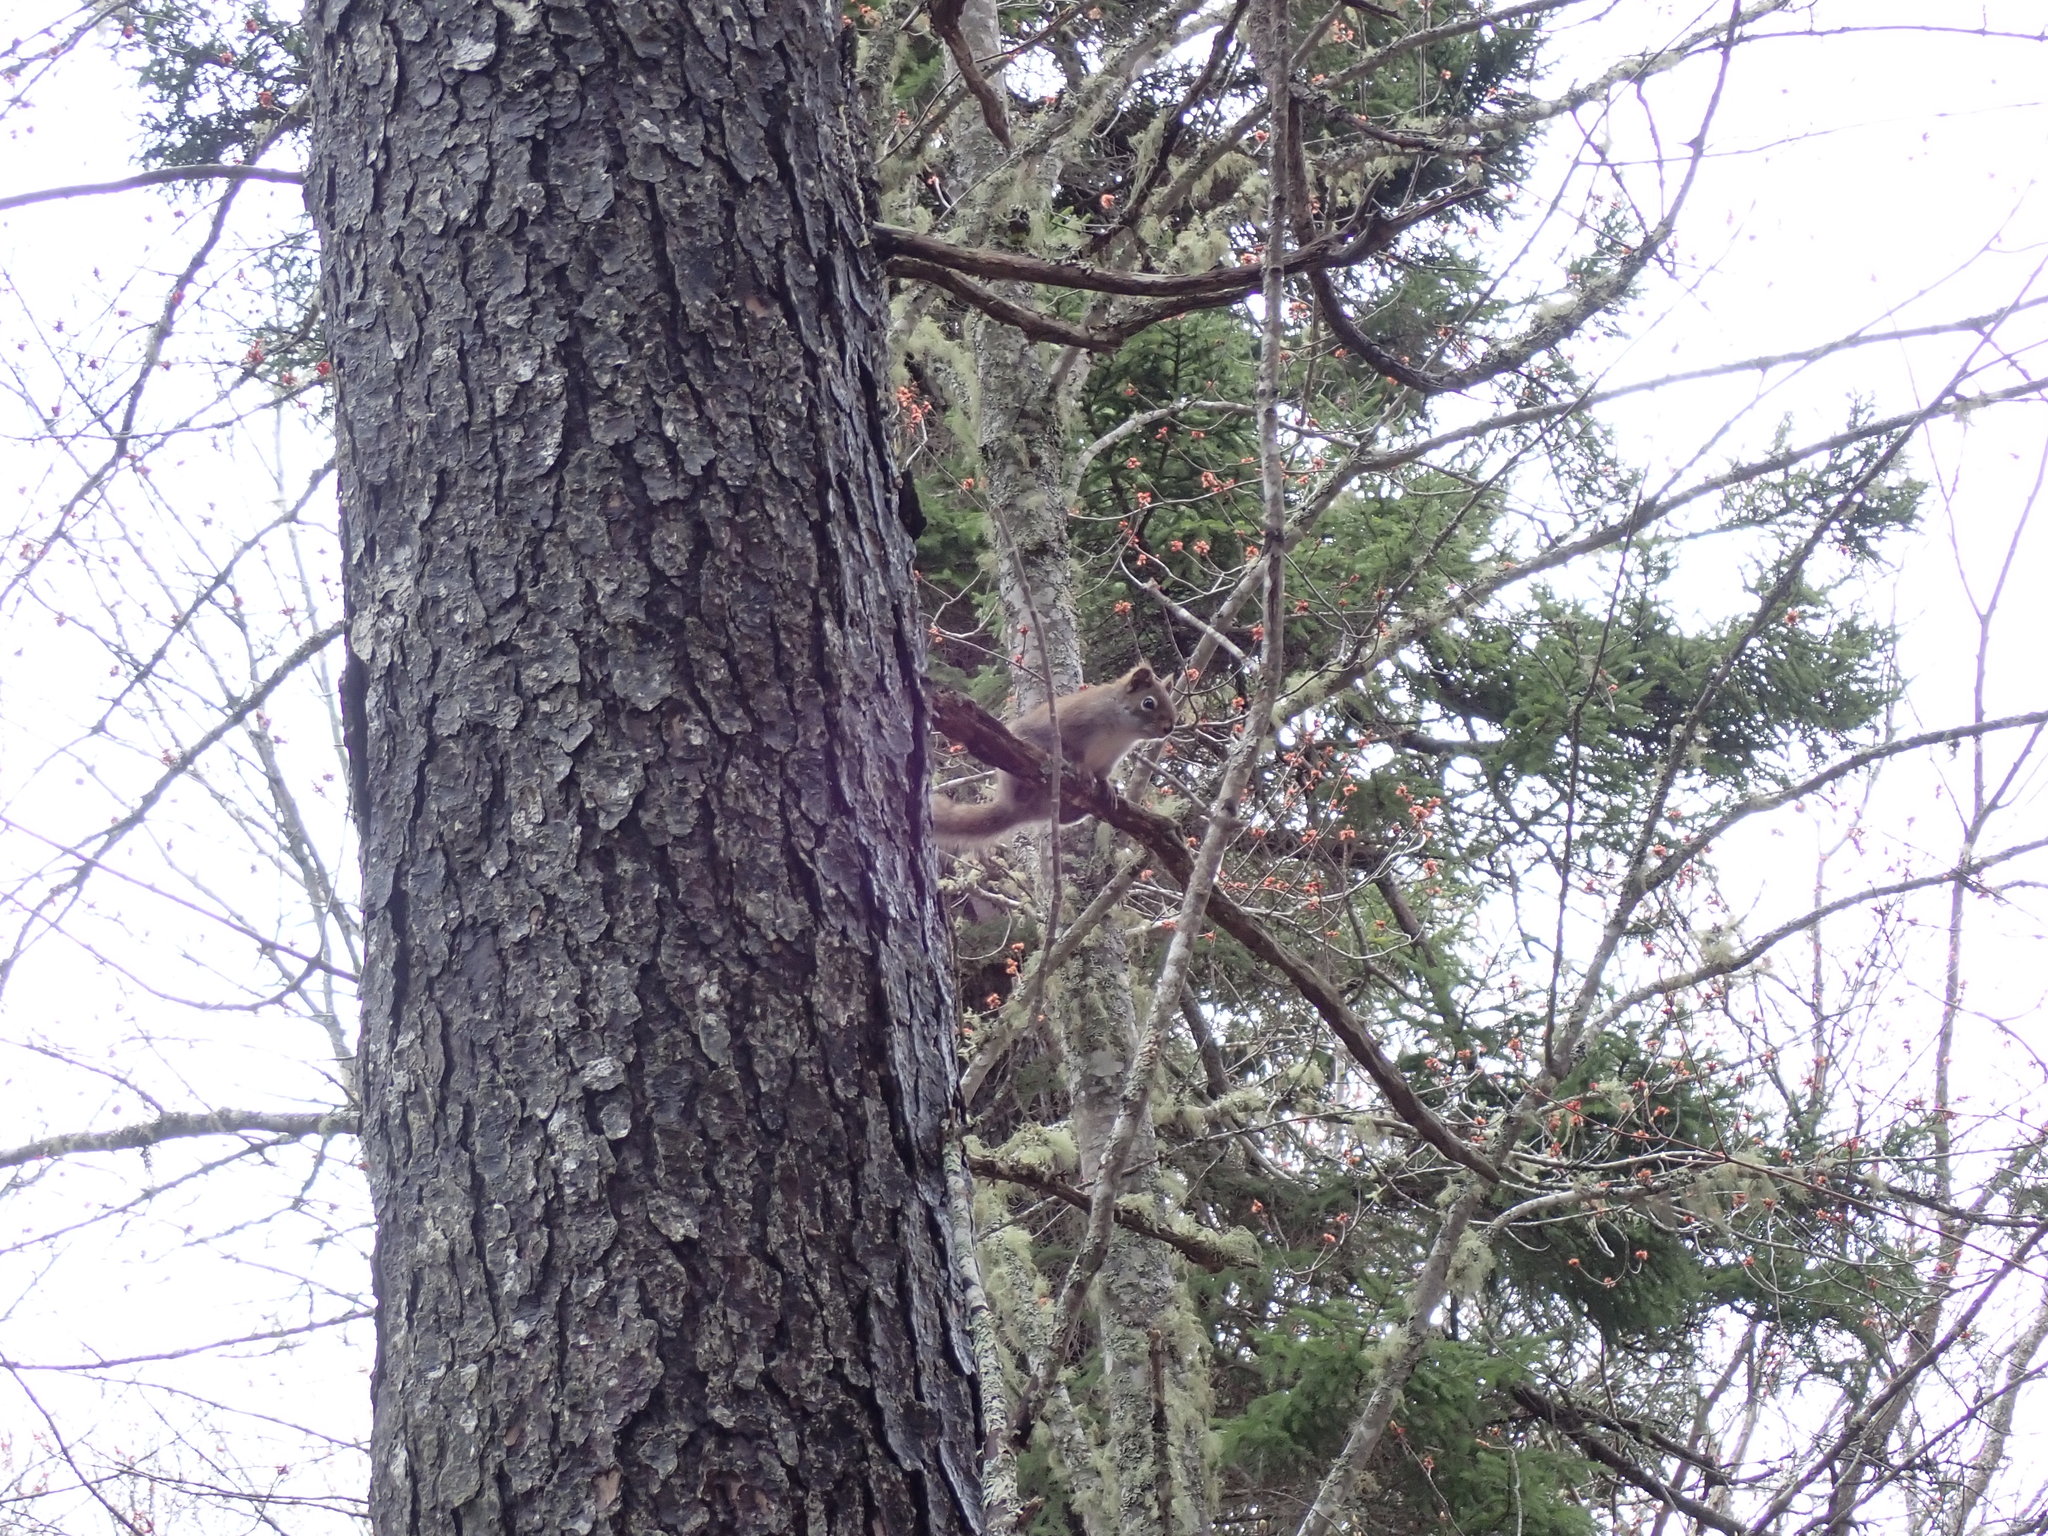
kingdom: Animalia
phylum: Chordata
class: Mammalia
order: Rodentia
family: Sciuridae
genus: Tamiasciurus
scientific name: Tamiasciurus hudsonicus
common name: Red squirrel
